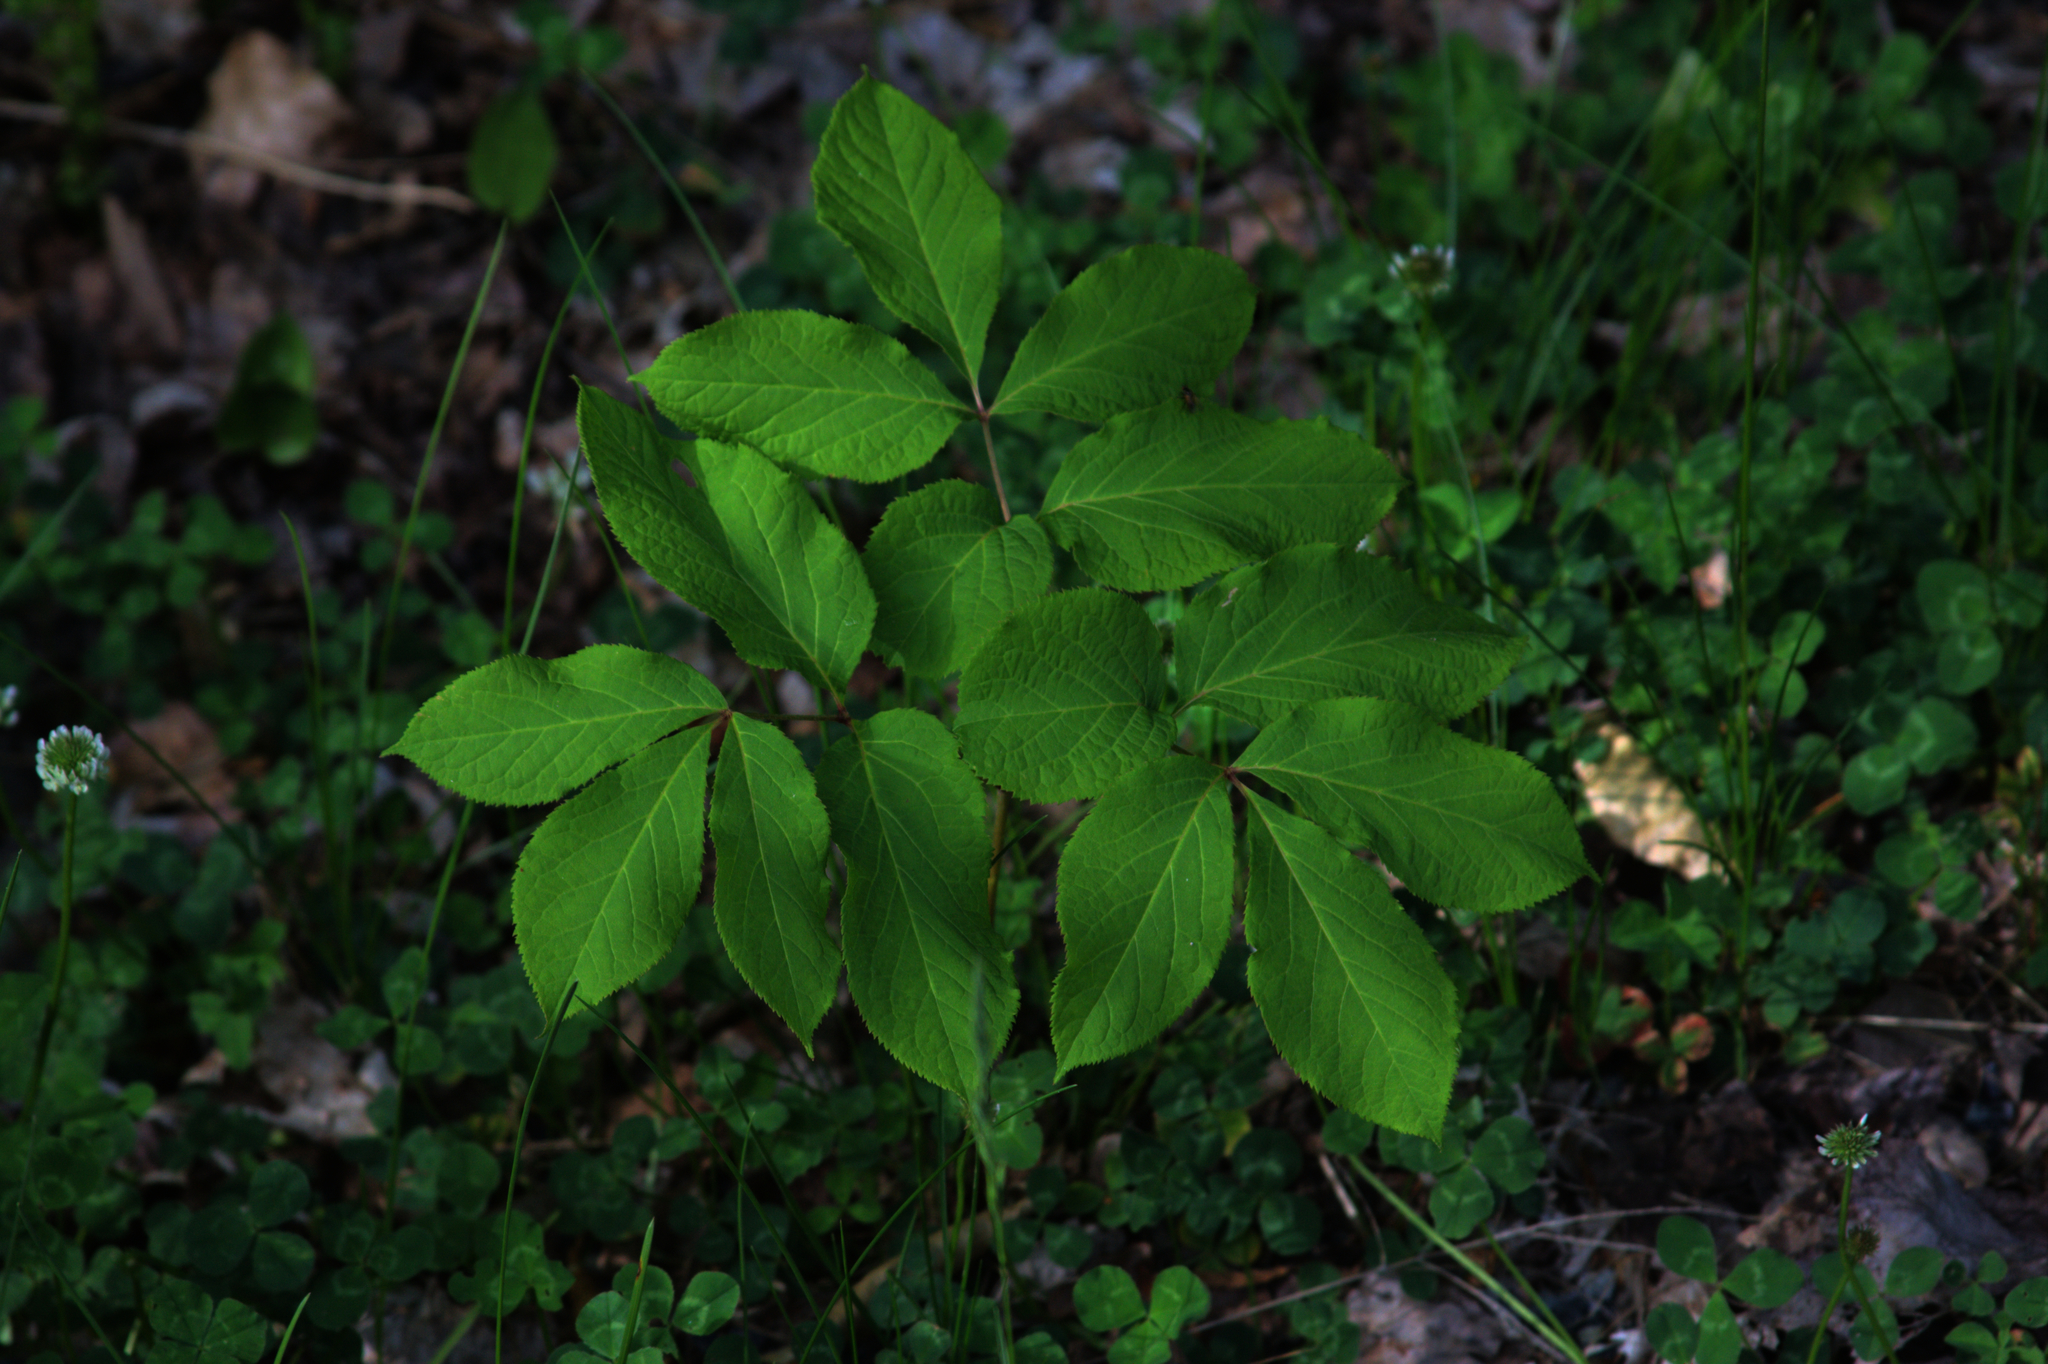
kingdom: Plantae
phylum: Tracheophyta
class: Magnoliopsida
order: Apiales
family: Araliaceae
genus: Aralia
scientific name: Aralia nudicaulis
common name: Wild sarsaparilla
